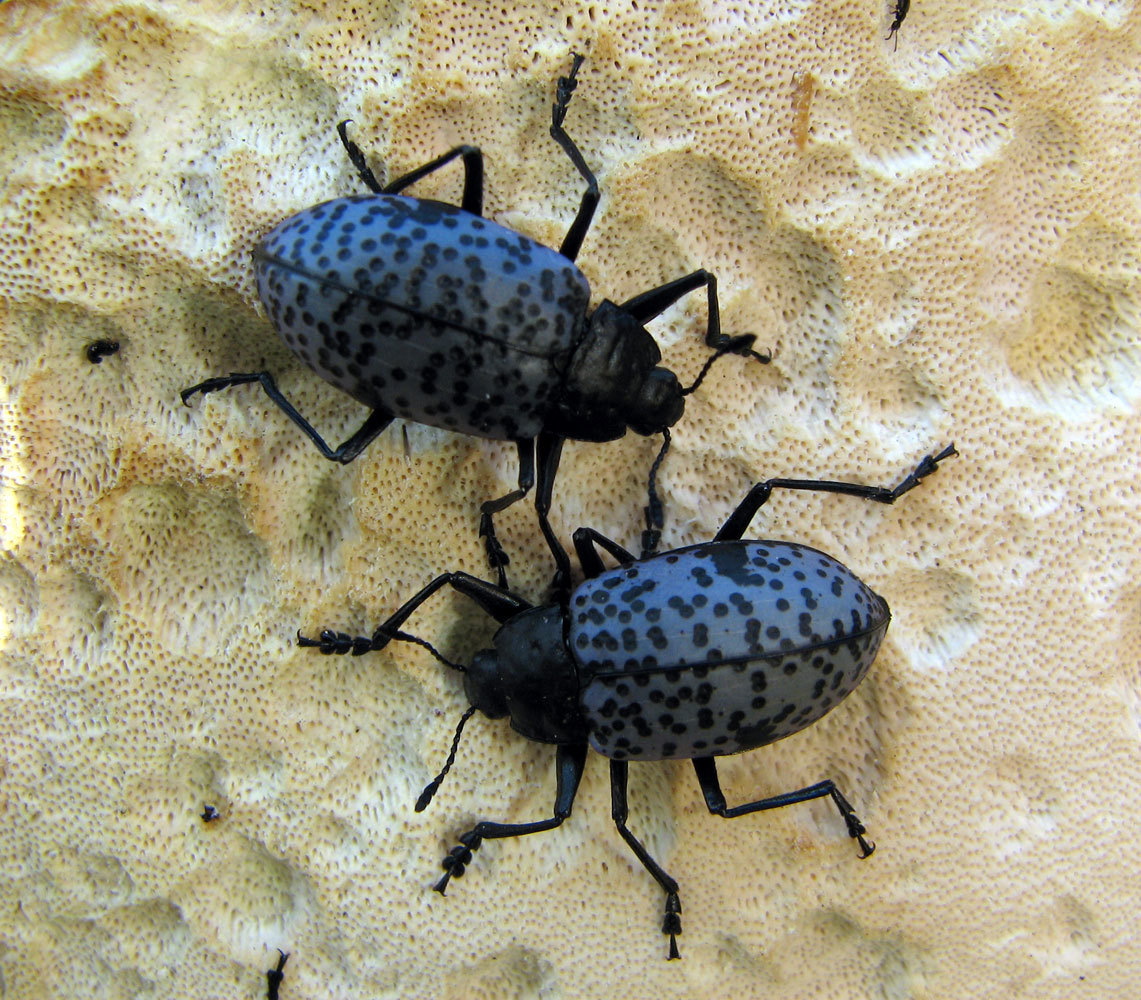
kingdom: Animalia
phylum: Arthropoda
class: Insecta
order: Coleoptera
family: Erotylidae
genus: Gibbifer
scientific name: Gibbifer californicus
